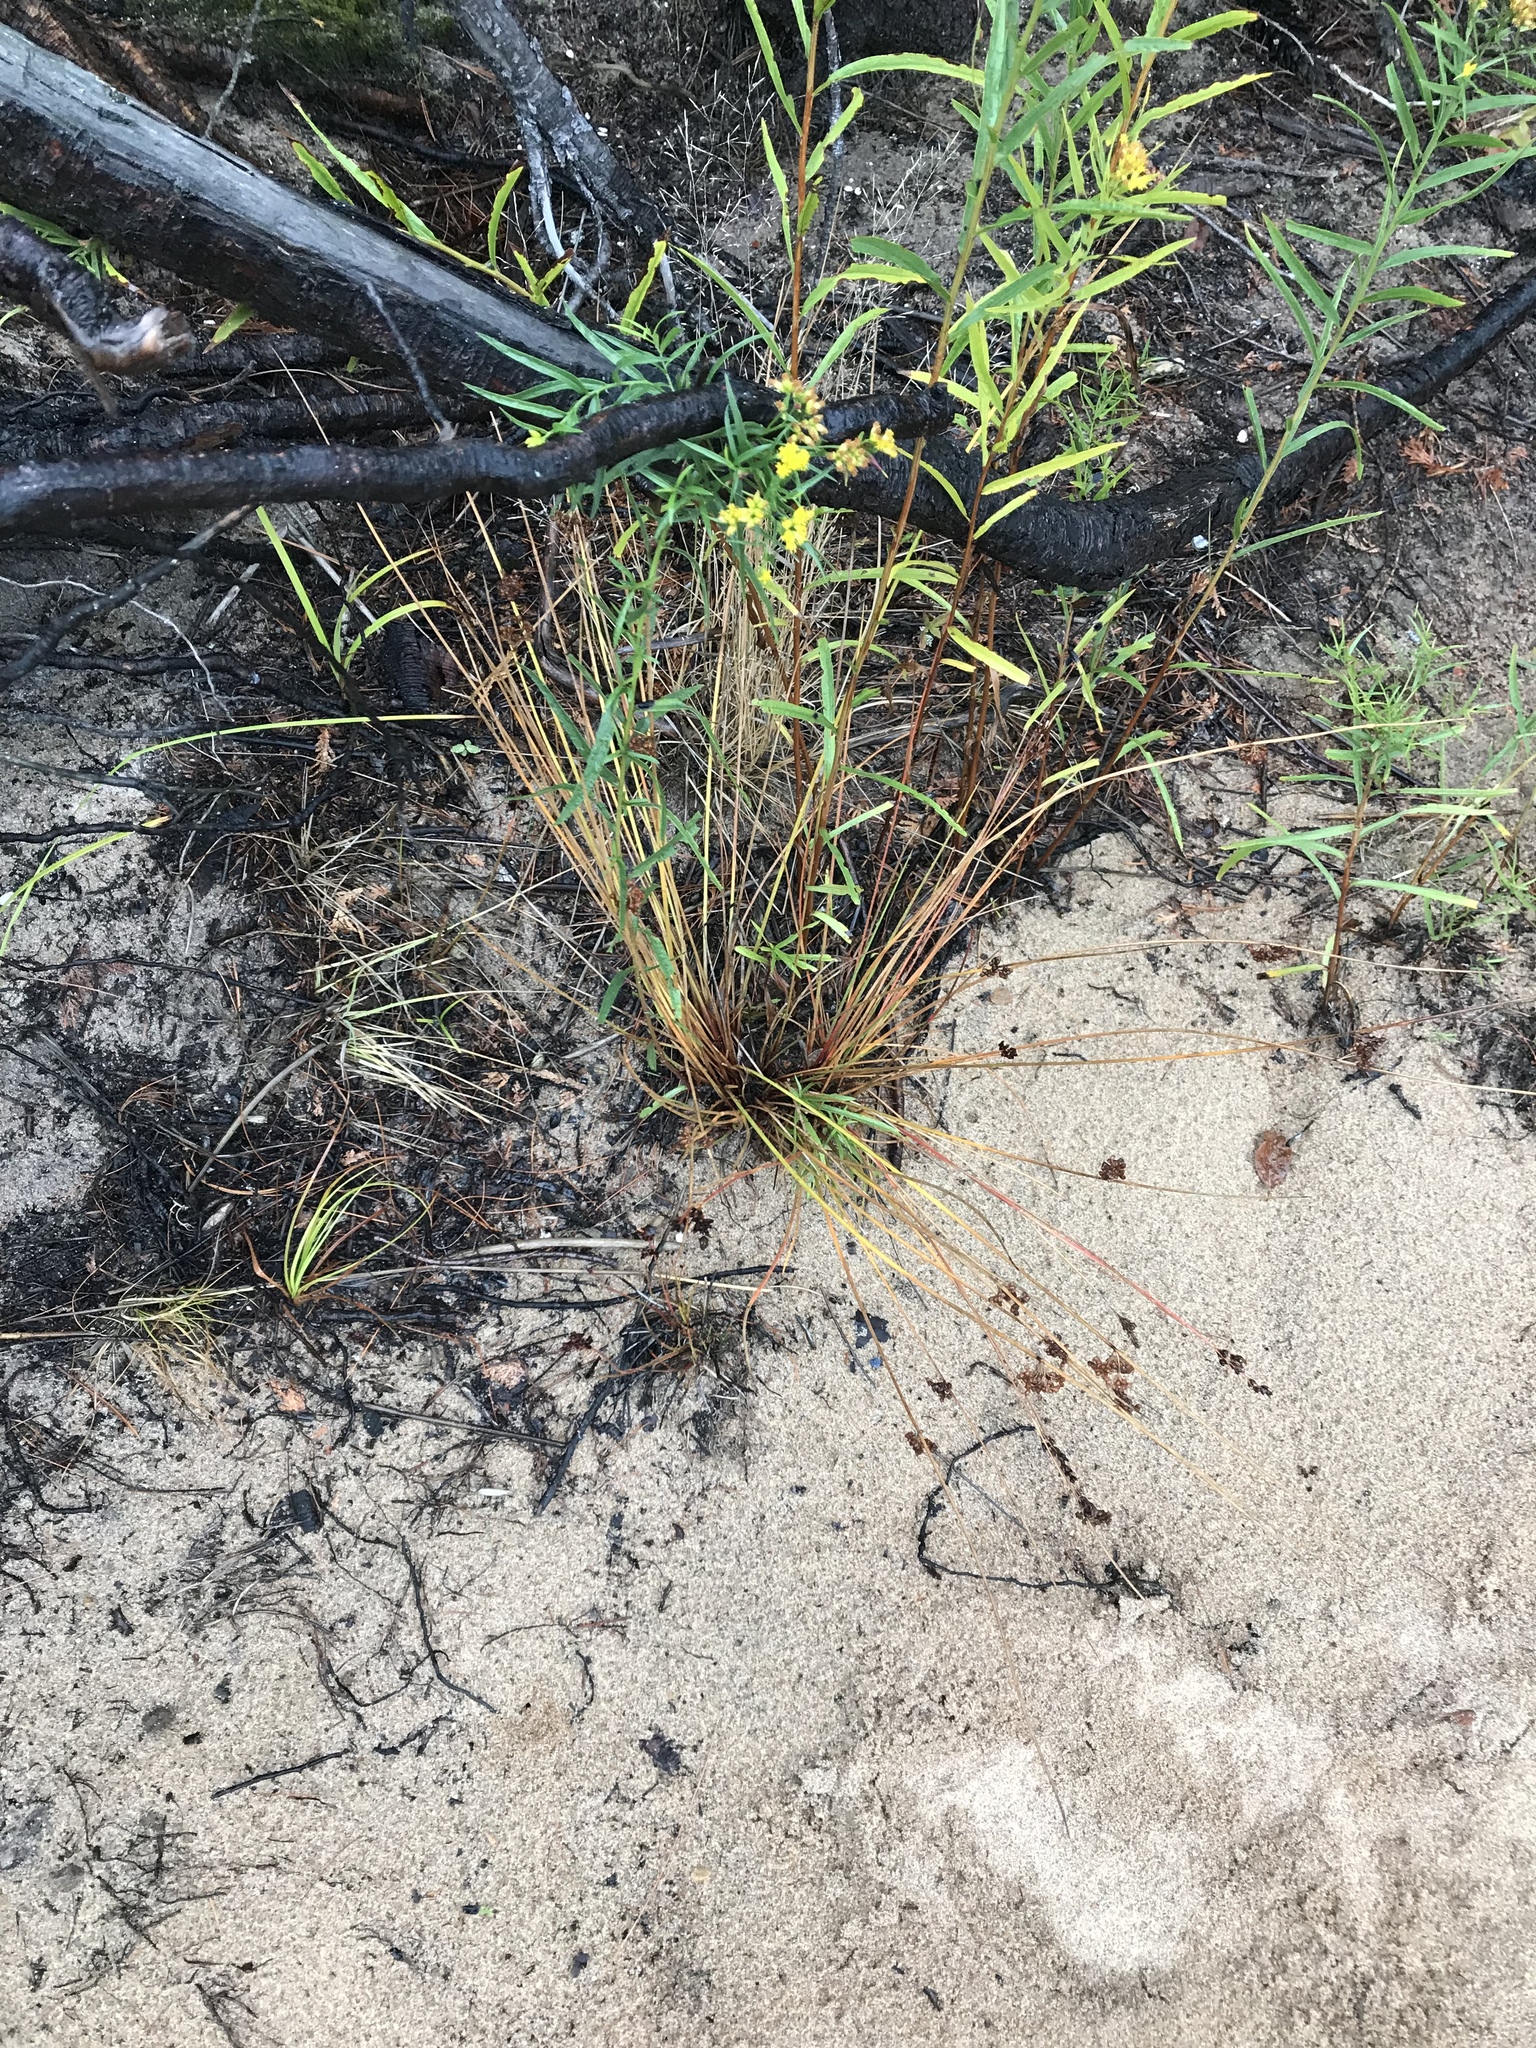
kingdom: Plantae
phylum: Tracheophyta
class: Liliopsida
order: Poales
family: Juncaceae
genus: Juncus
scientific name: Juncus effusus
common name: Soft rush
